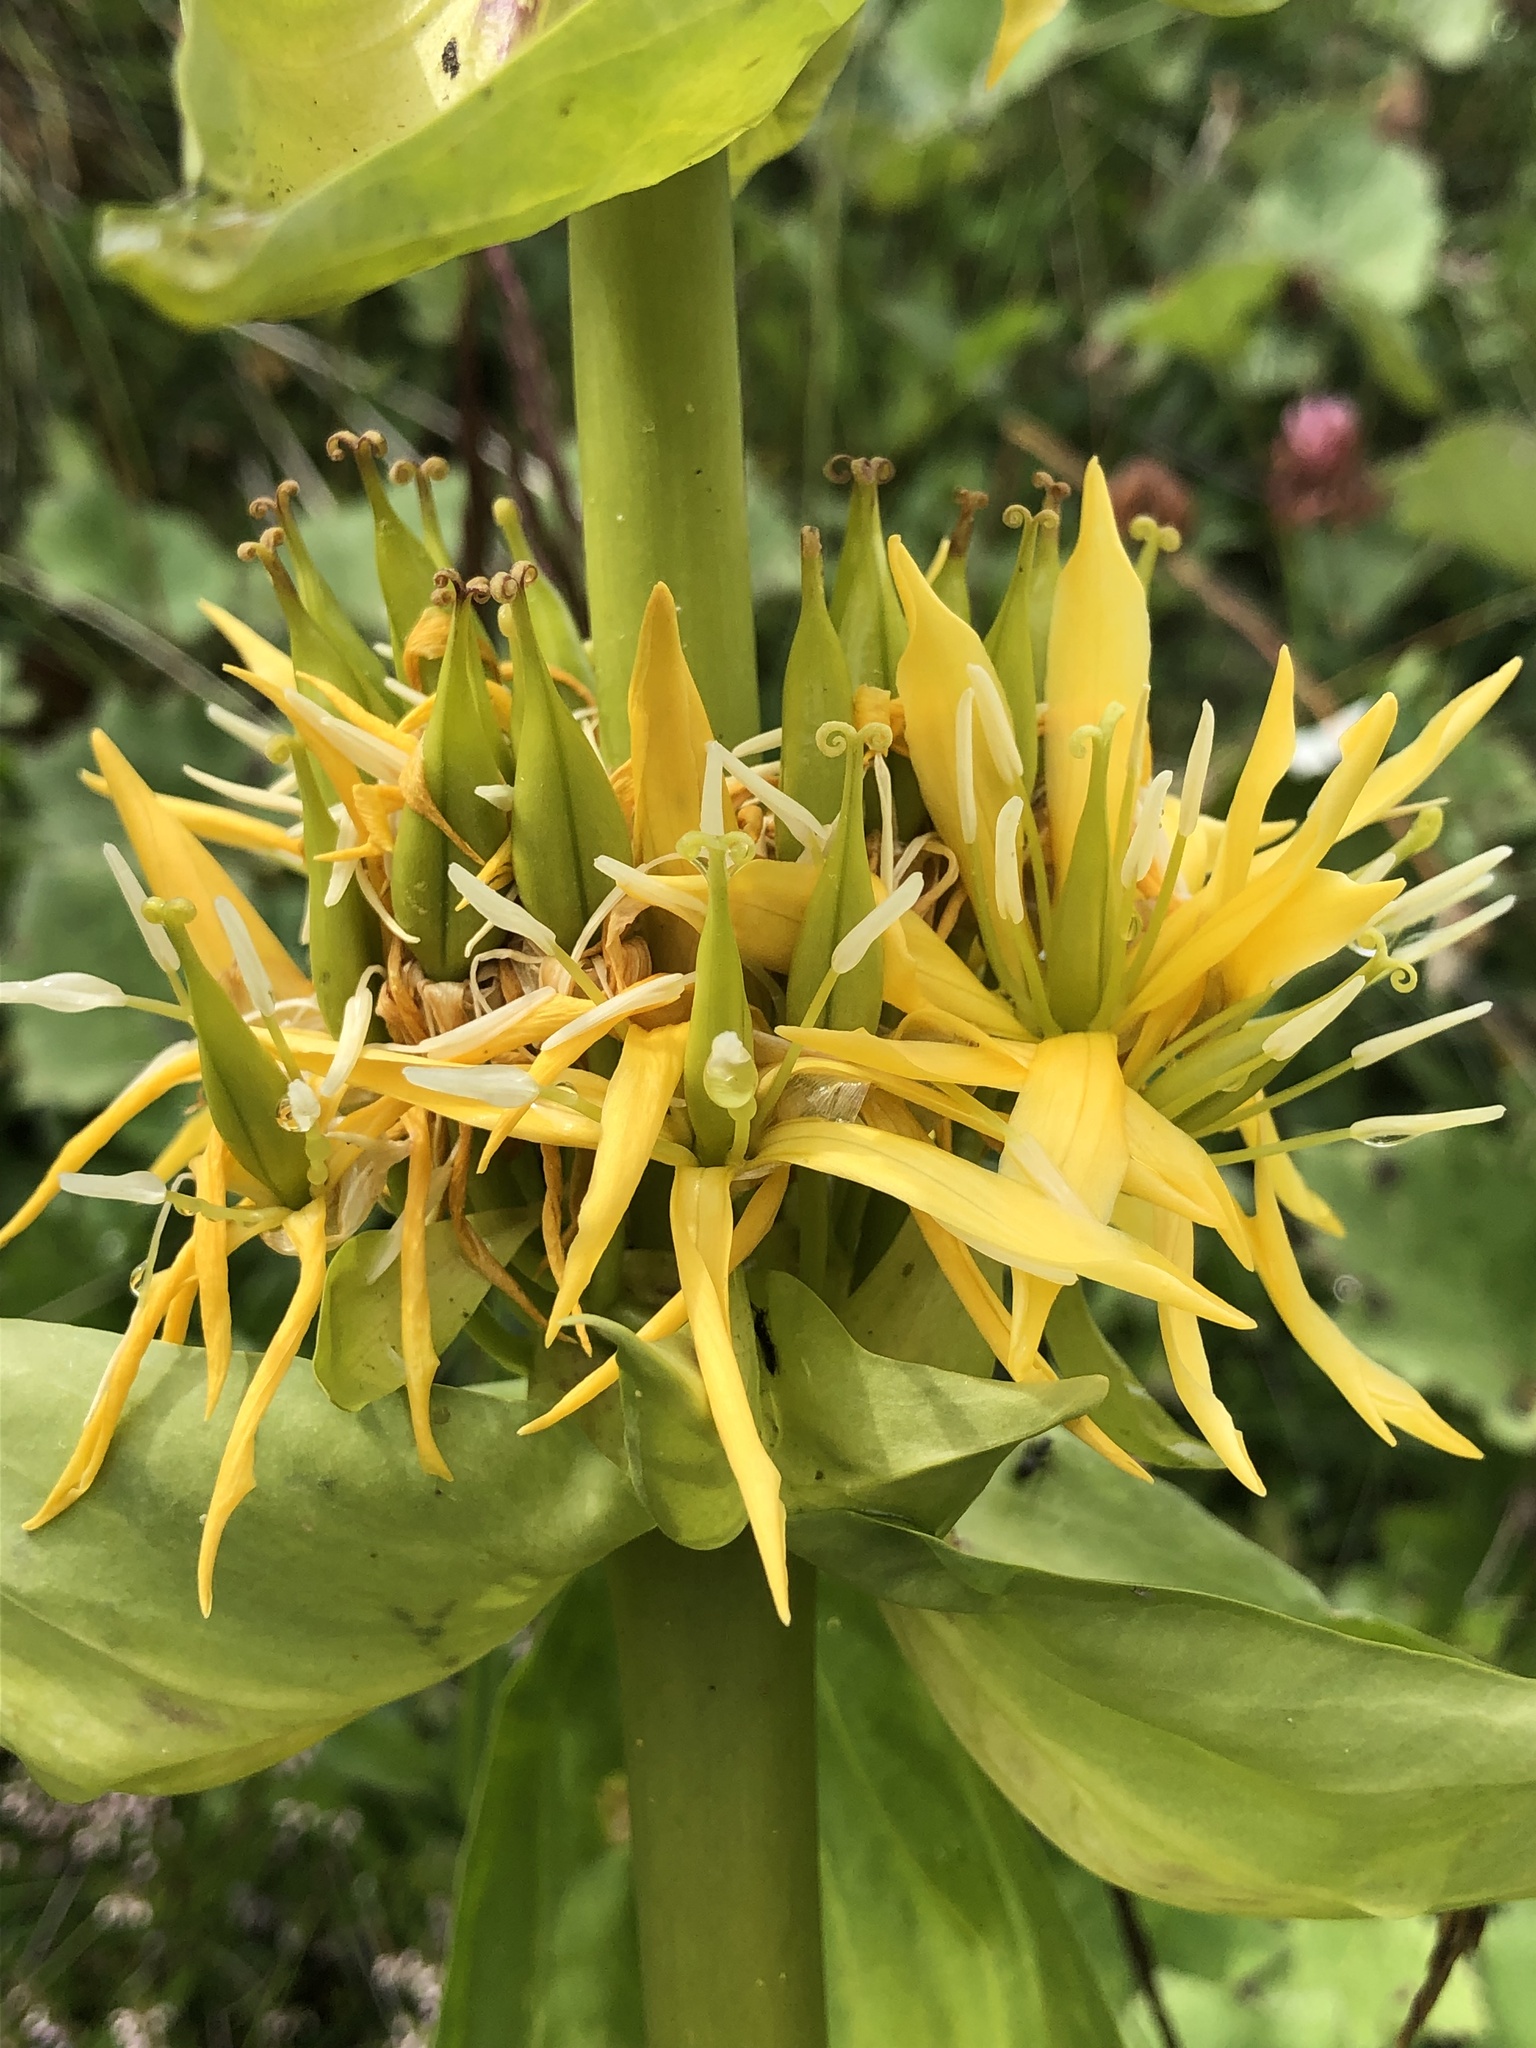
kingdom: Plantae
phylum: Tracheophyta
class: Magnoliopsida
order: Gentianales
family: Gentianaceae
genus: Gentiana
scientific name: Gentiana lutea
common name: Great yellow gentian
